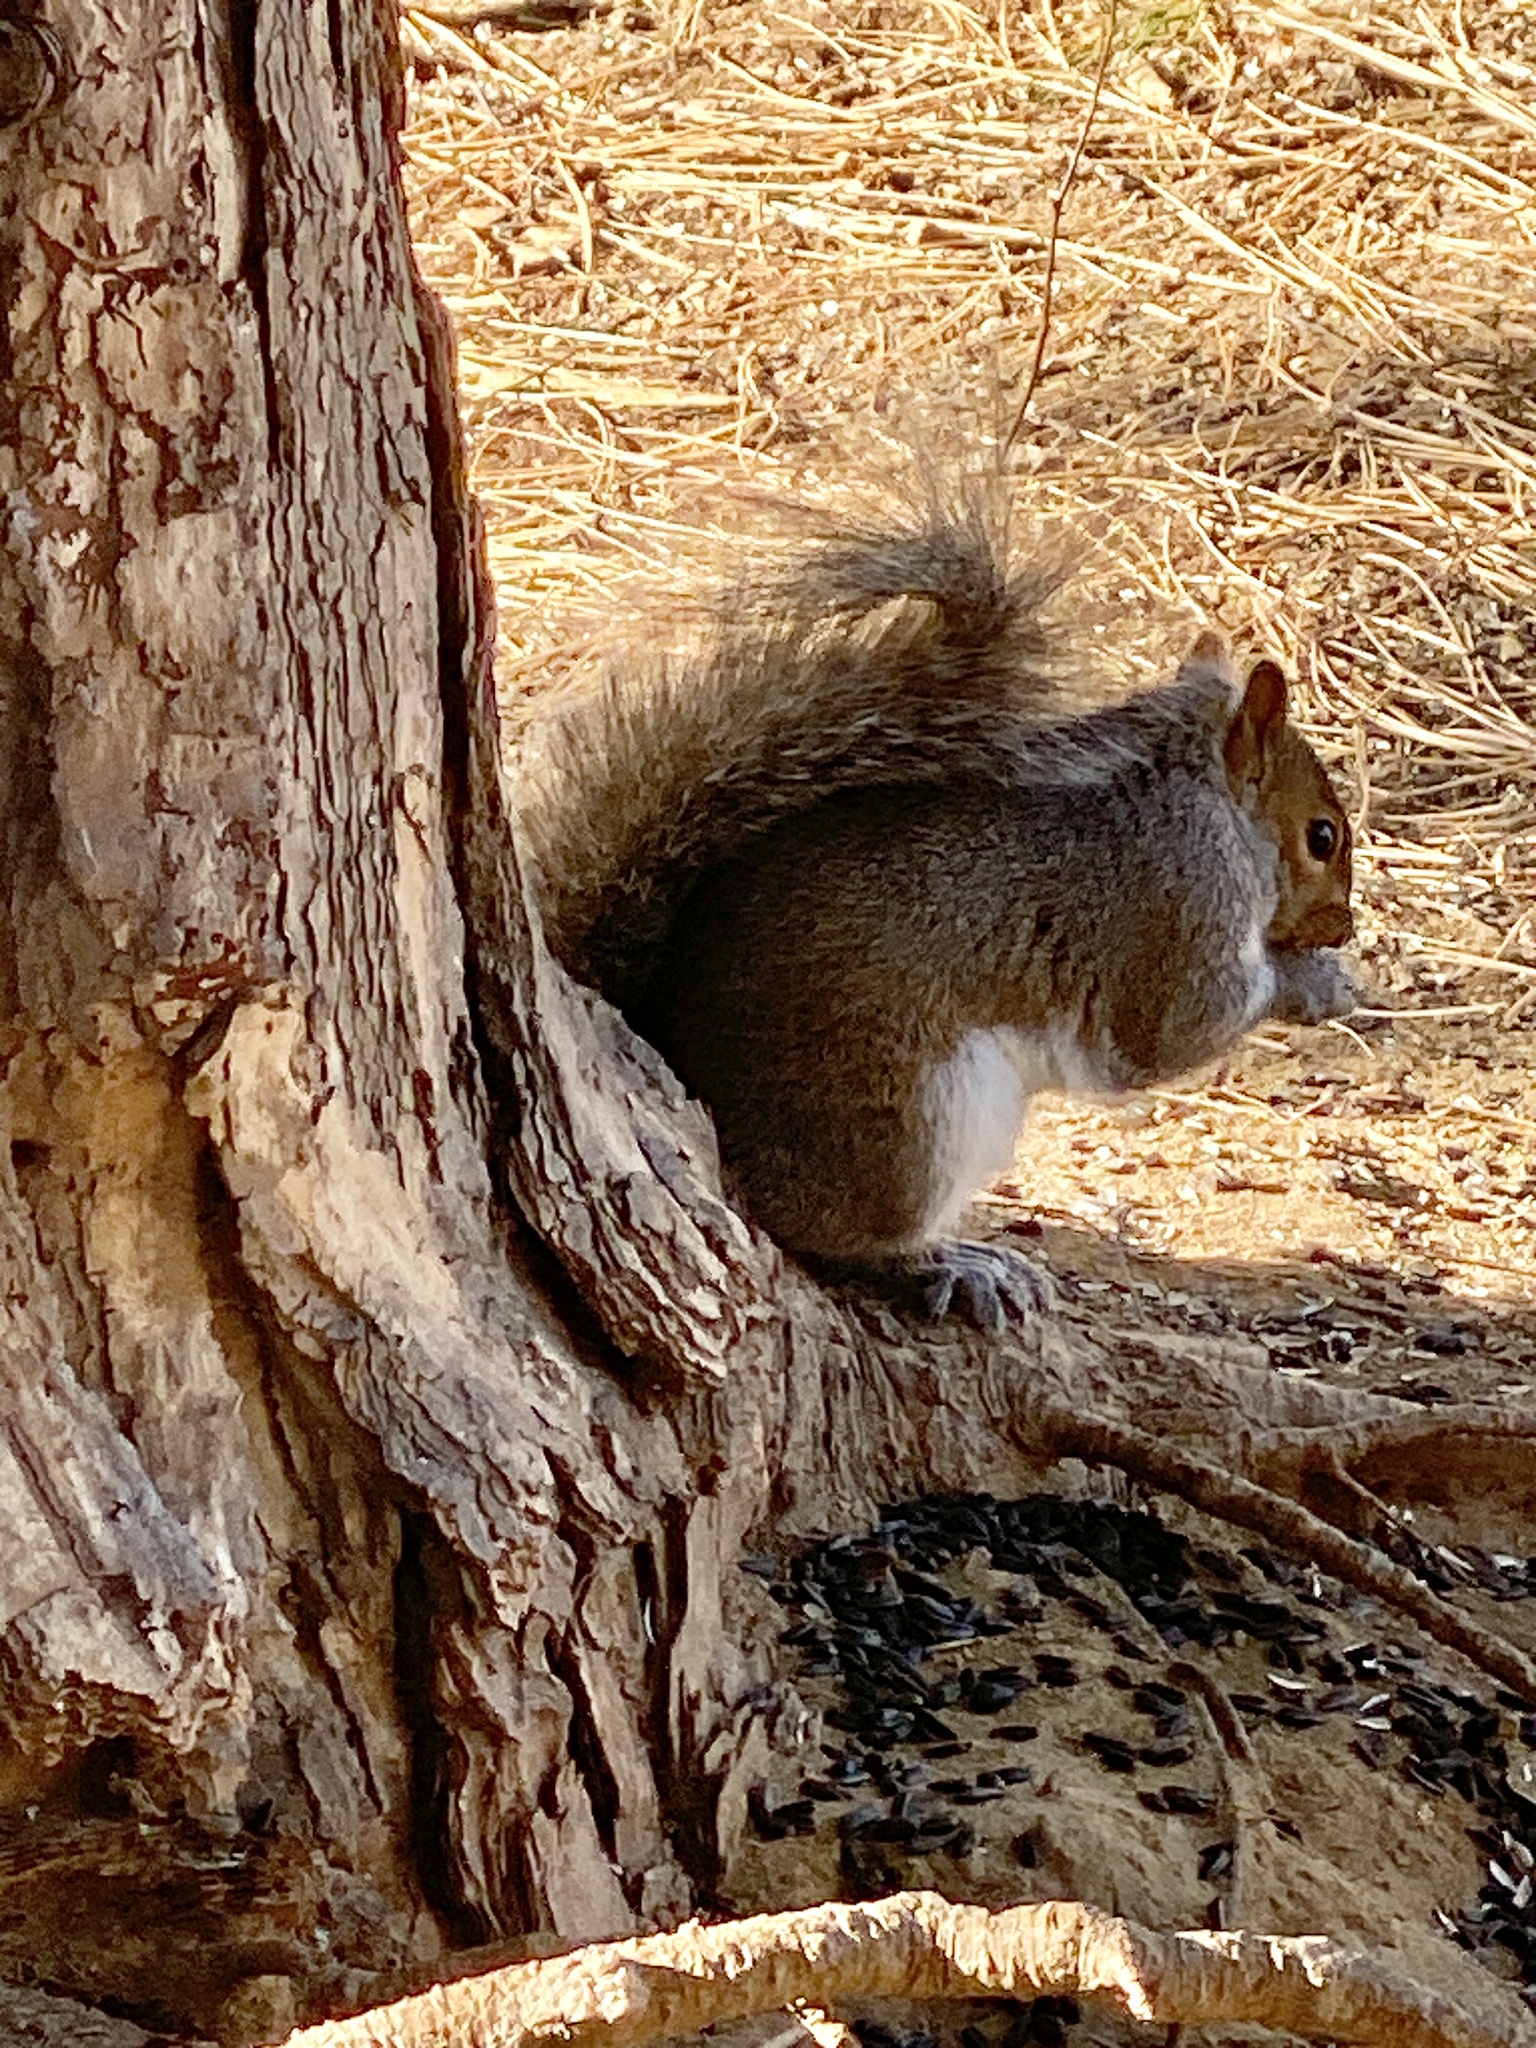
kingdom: Animalia
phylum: Chordata
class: Mammalia
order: Rodentia
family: Sciuridae
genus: Sciurus
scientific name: Sciurus carolinensis
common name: Eastern gray squirrel
